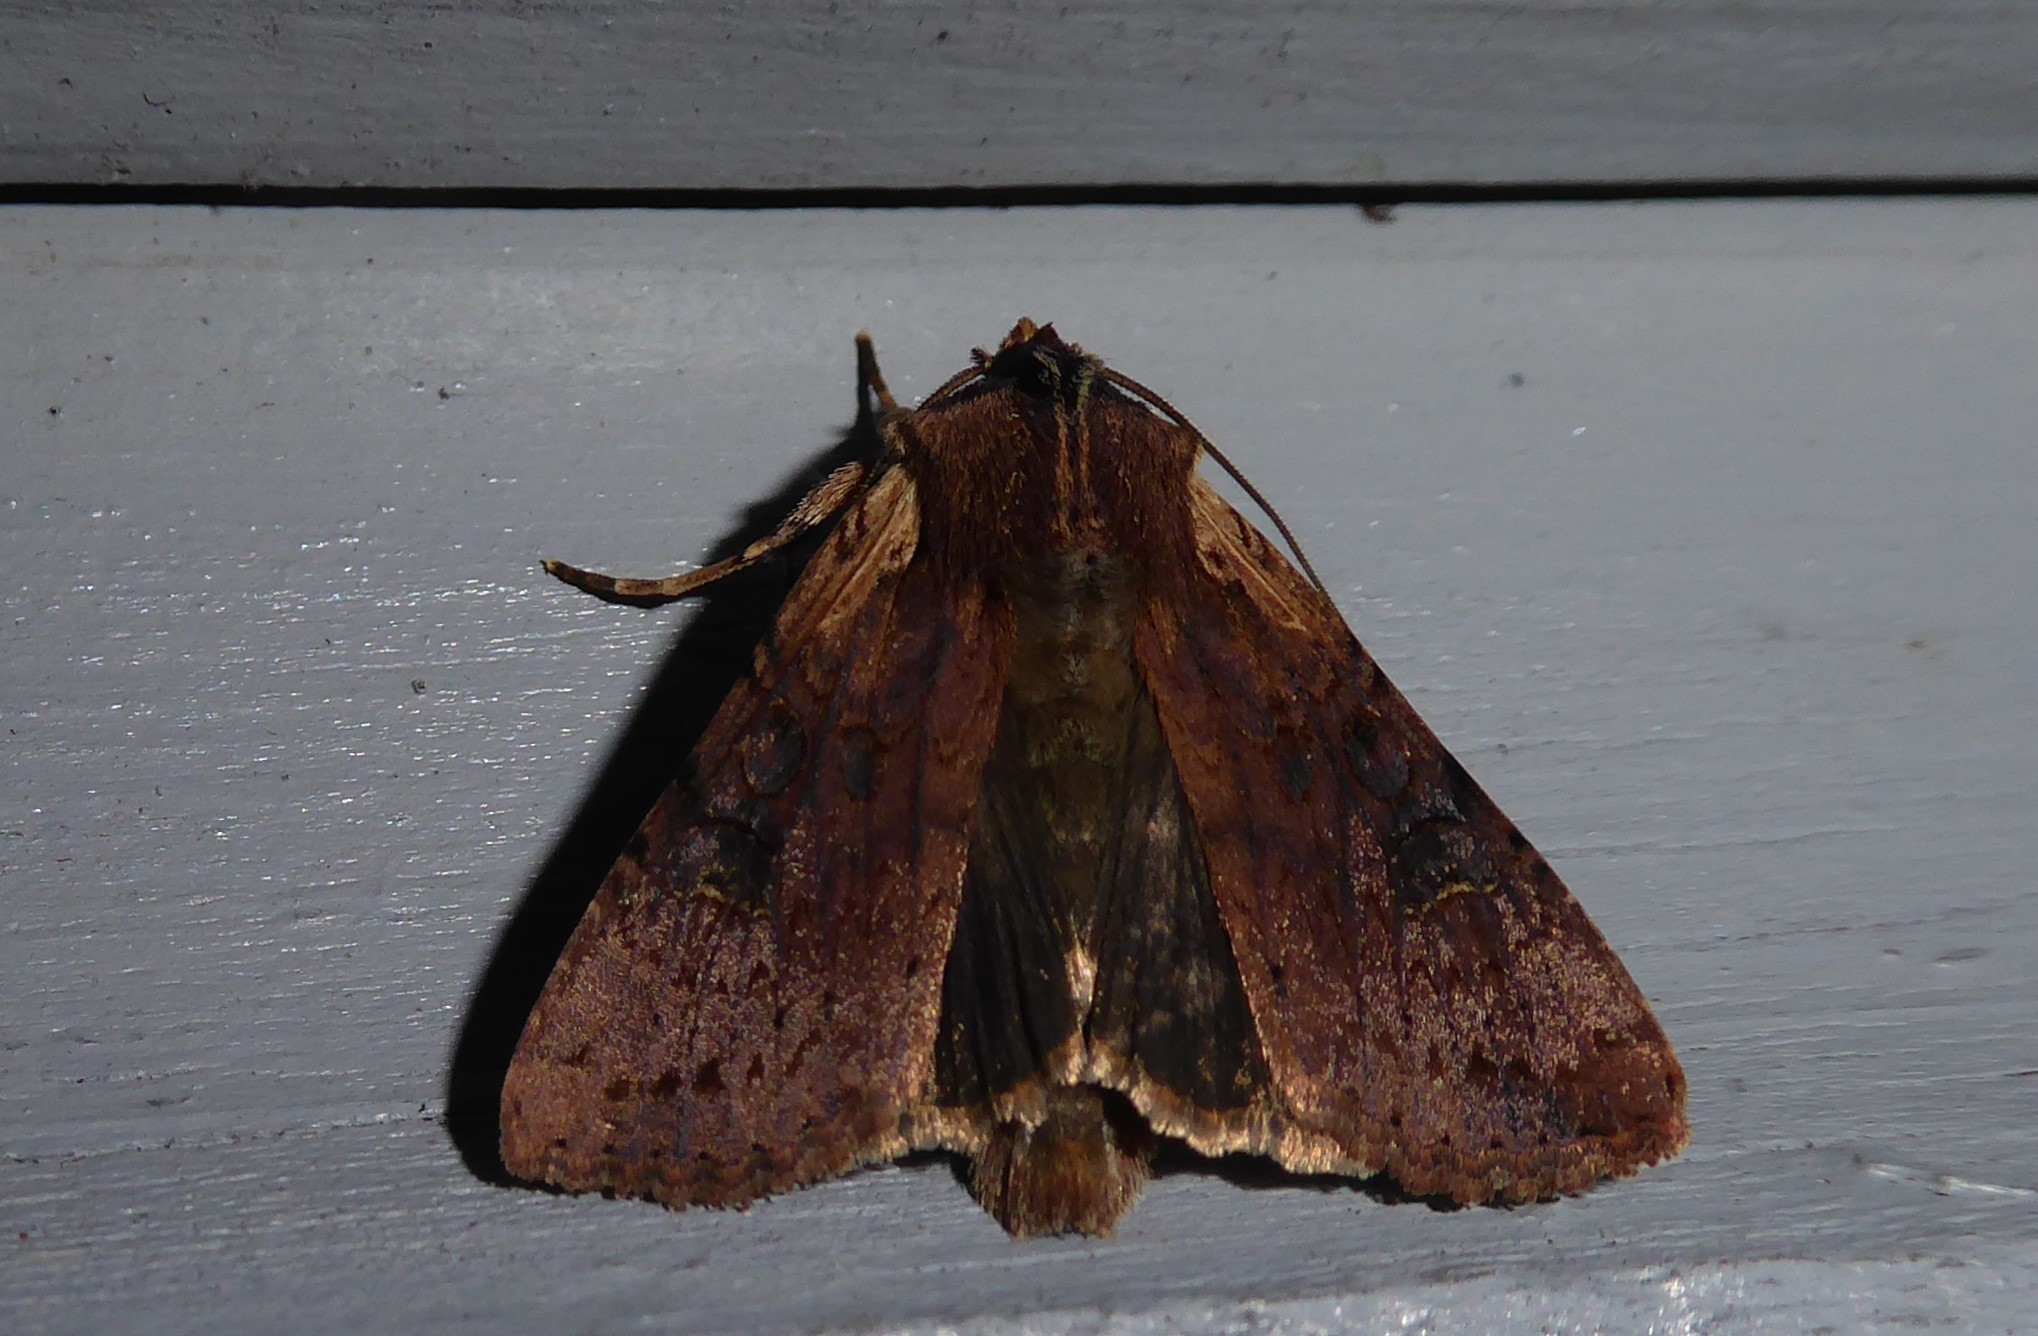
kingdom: Animalia
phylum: Arthropoda
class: Insecta
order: Lepidoptera
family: Noctuidae
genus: Ichneutica
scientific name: Ichneutica omoplaca
